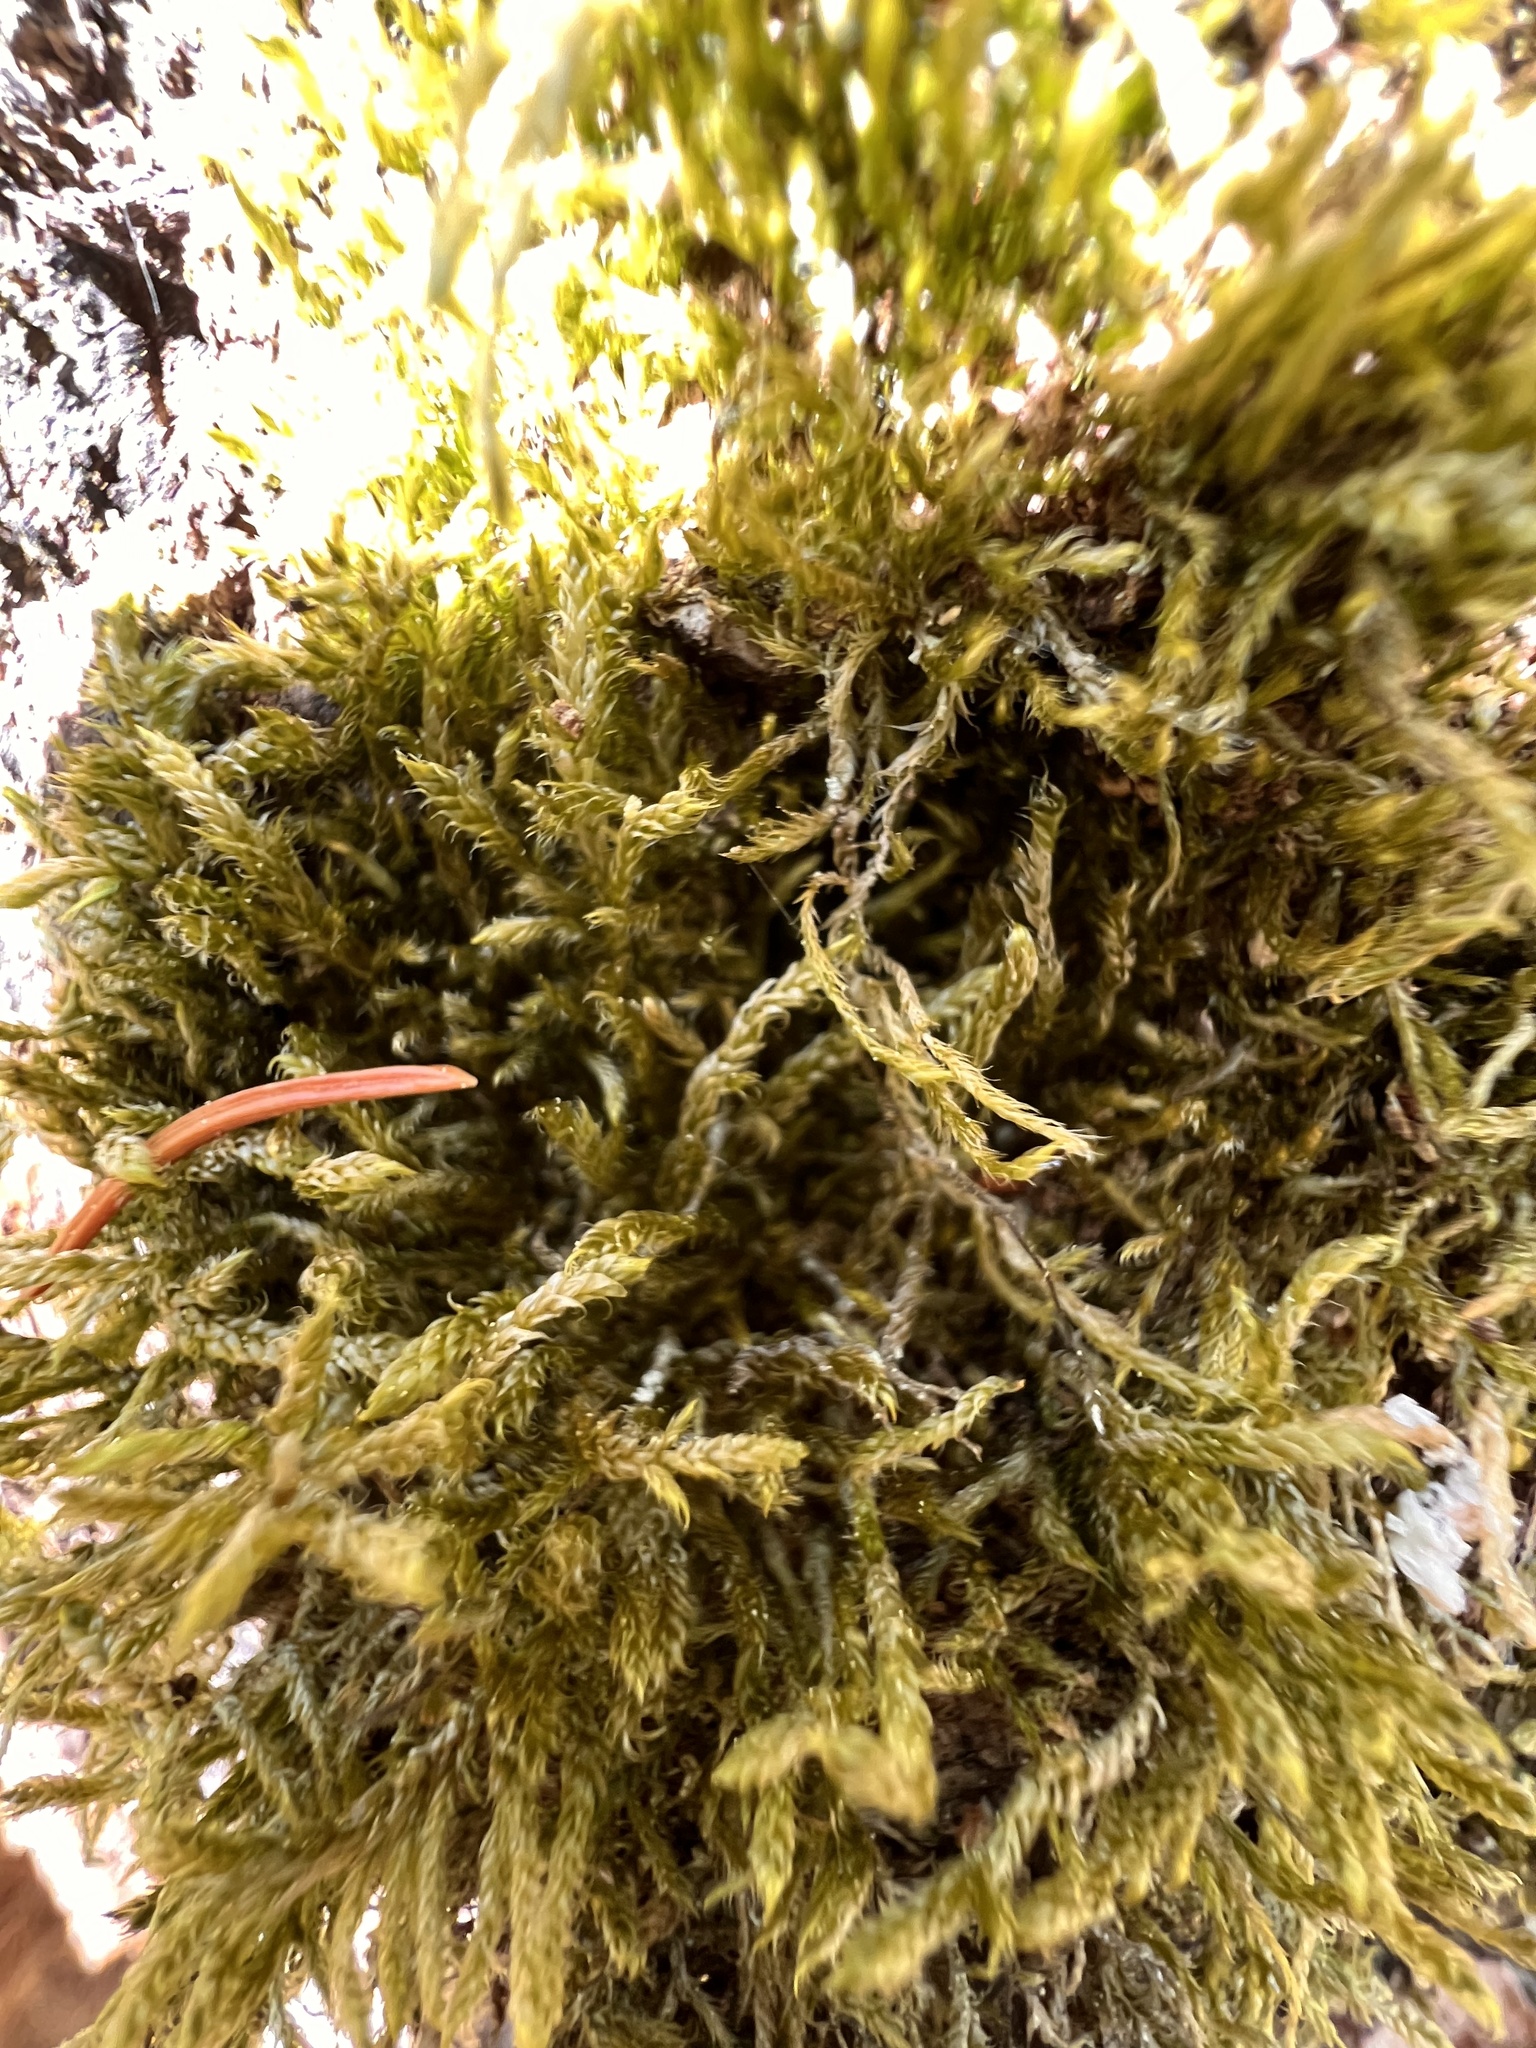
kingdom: Plantae
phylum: Bryophyta
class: Bryopsida
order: Hypnales
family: Hypnaceae
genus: Hypnum
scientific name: Hypnum cupressiforme
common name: Cypress-leaved plait-moss
